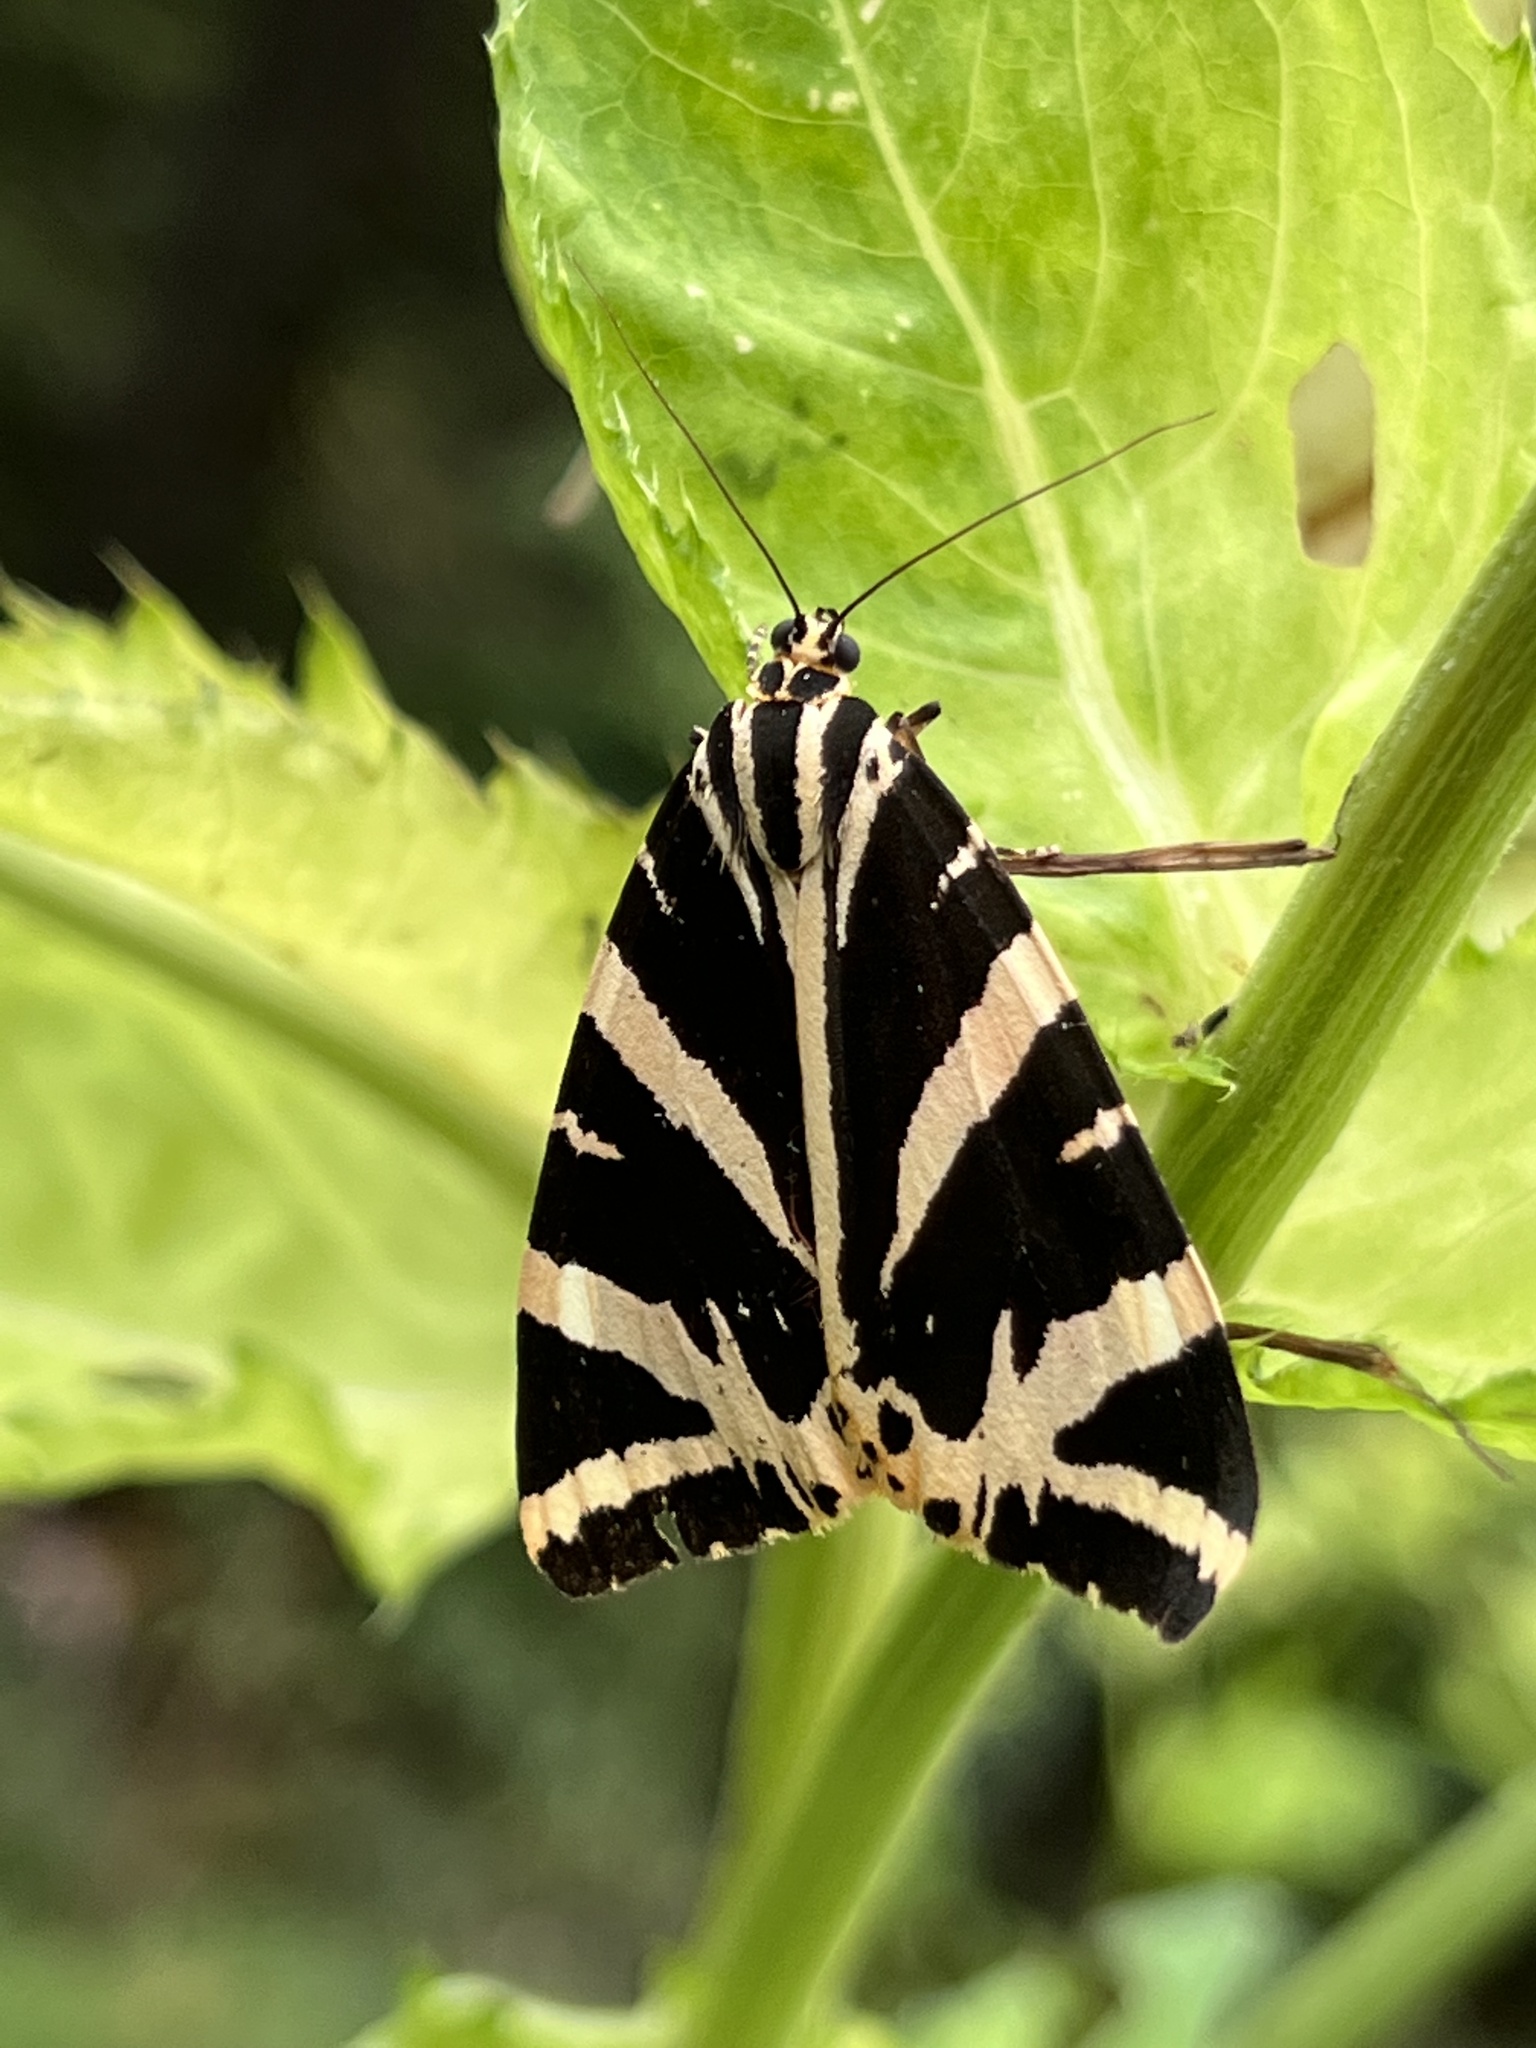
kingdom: Animalia
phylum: Arthropoda
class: Insecta
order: Lepidoptera
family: Erebidae
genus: Euplagia
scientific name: Euplagia quadripunctaria
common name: Jersey tiger
